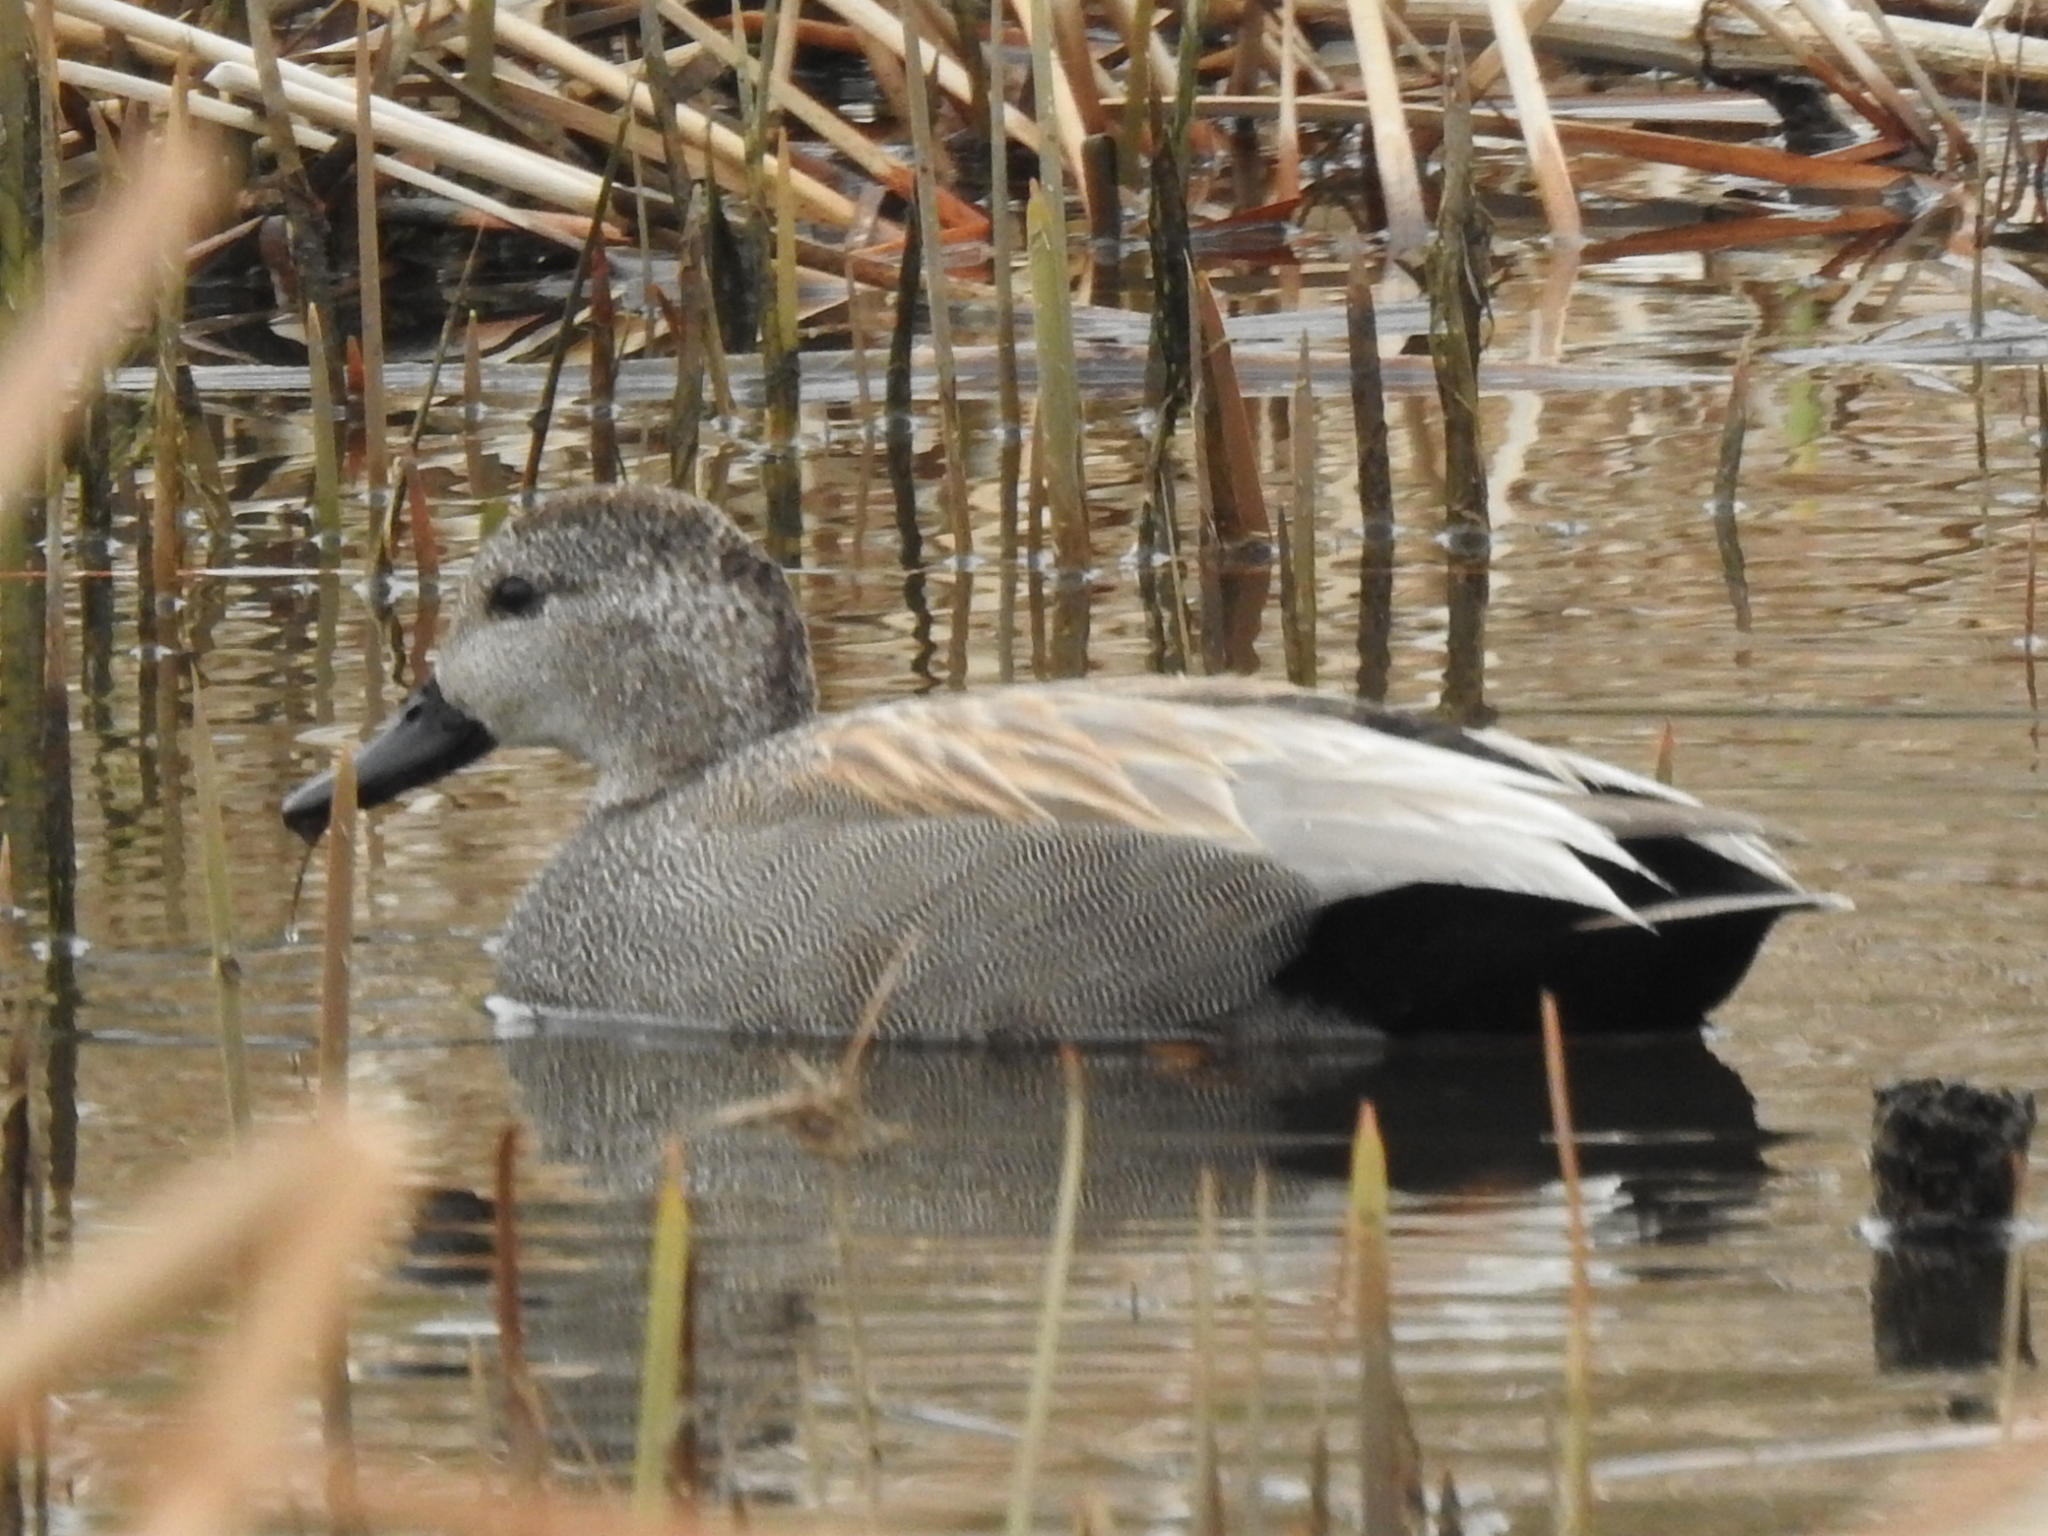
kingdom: Animalia
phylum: Chordata
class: Aves
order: Anseriformes
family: Anatidae
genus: Mareca
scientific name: Mareca strepera
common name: Gadwall
